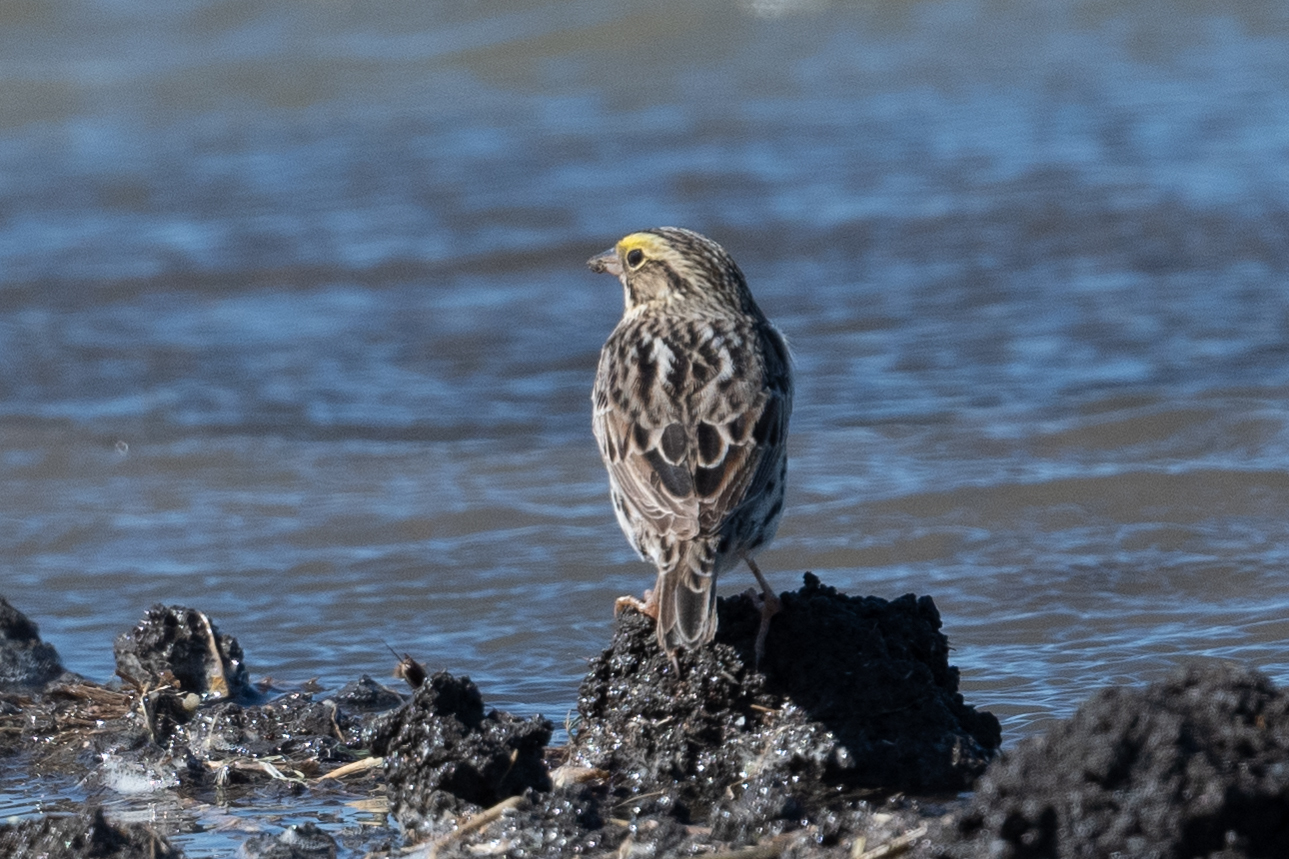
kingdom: Animalia
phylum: Chordata
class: Aves
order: Passeriformes
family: Passerellidae
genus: Passerculus
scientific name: Passerculus sandwichensis
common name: Savannah sparrow
